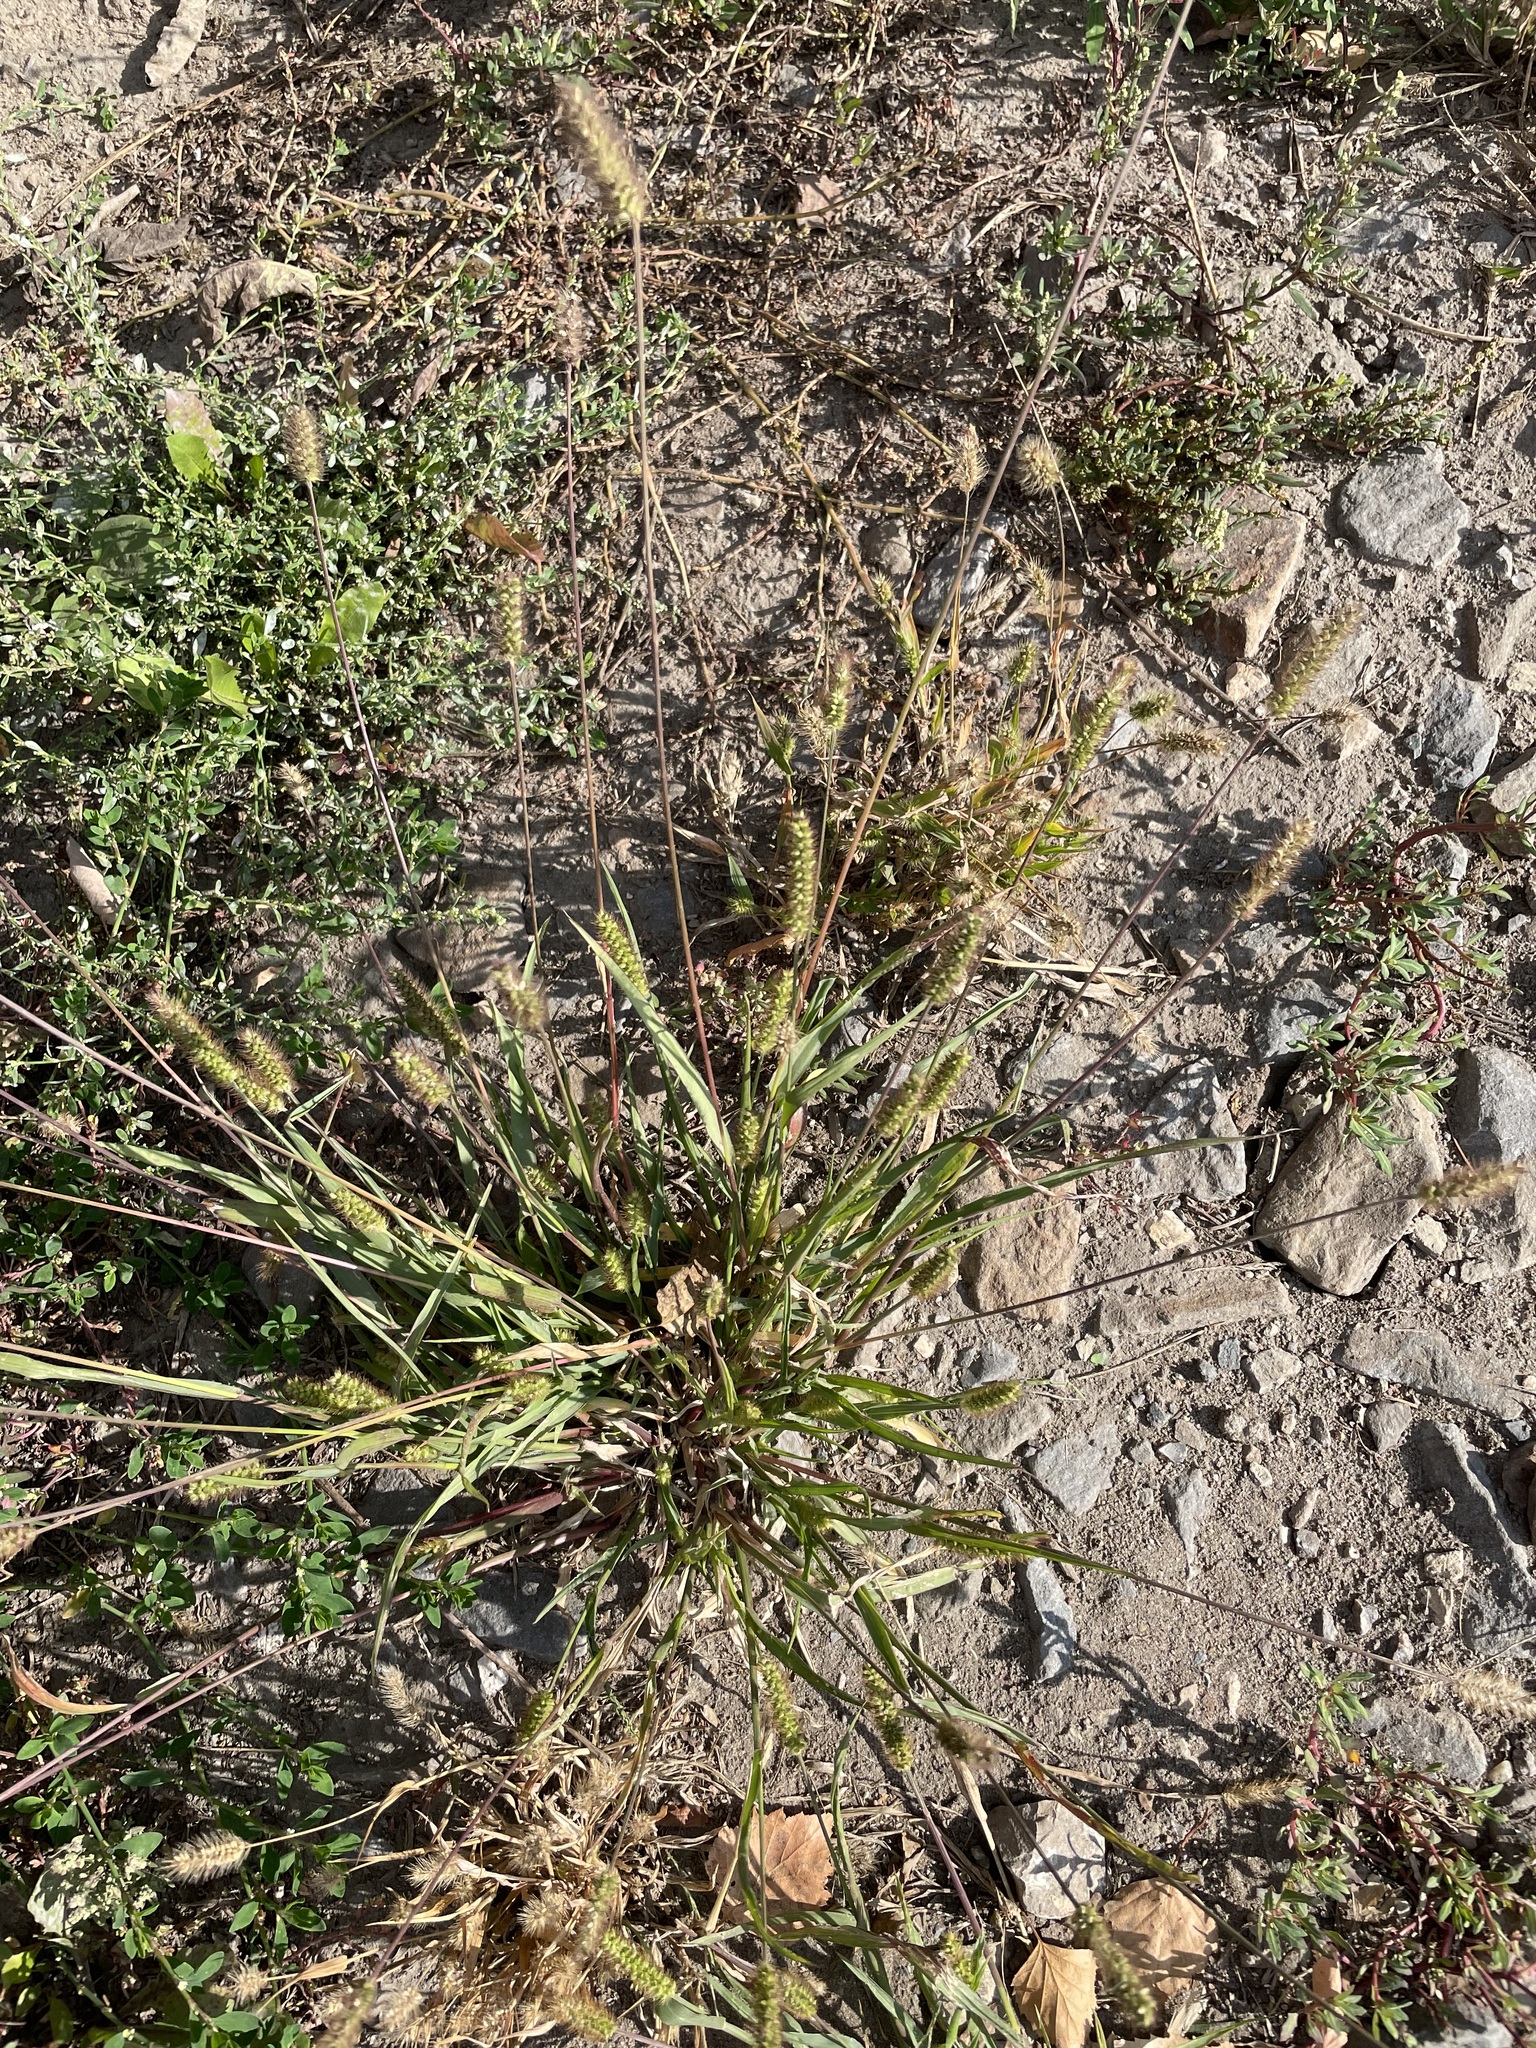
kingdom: Plantae
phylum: Tracheophyta
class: Liliopsida
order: Poales
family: Poaceae
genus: Setaria
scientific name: Setaria pumila
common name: Yellow bristle-grass
